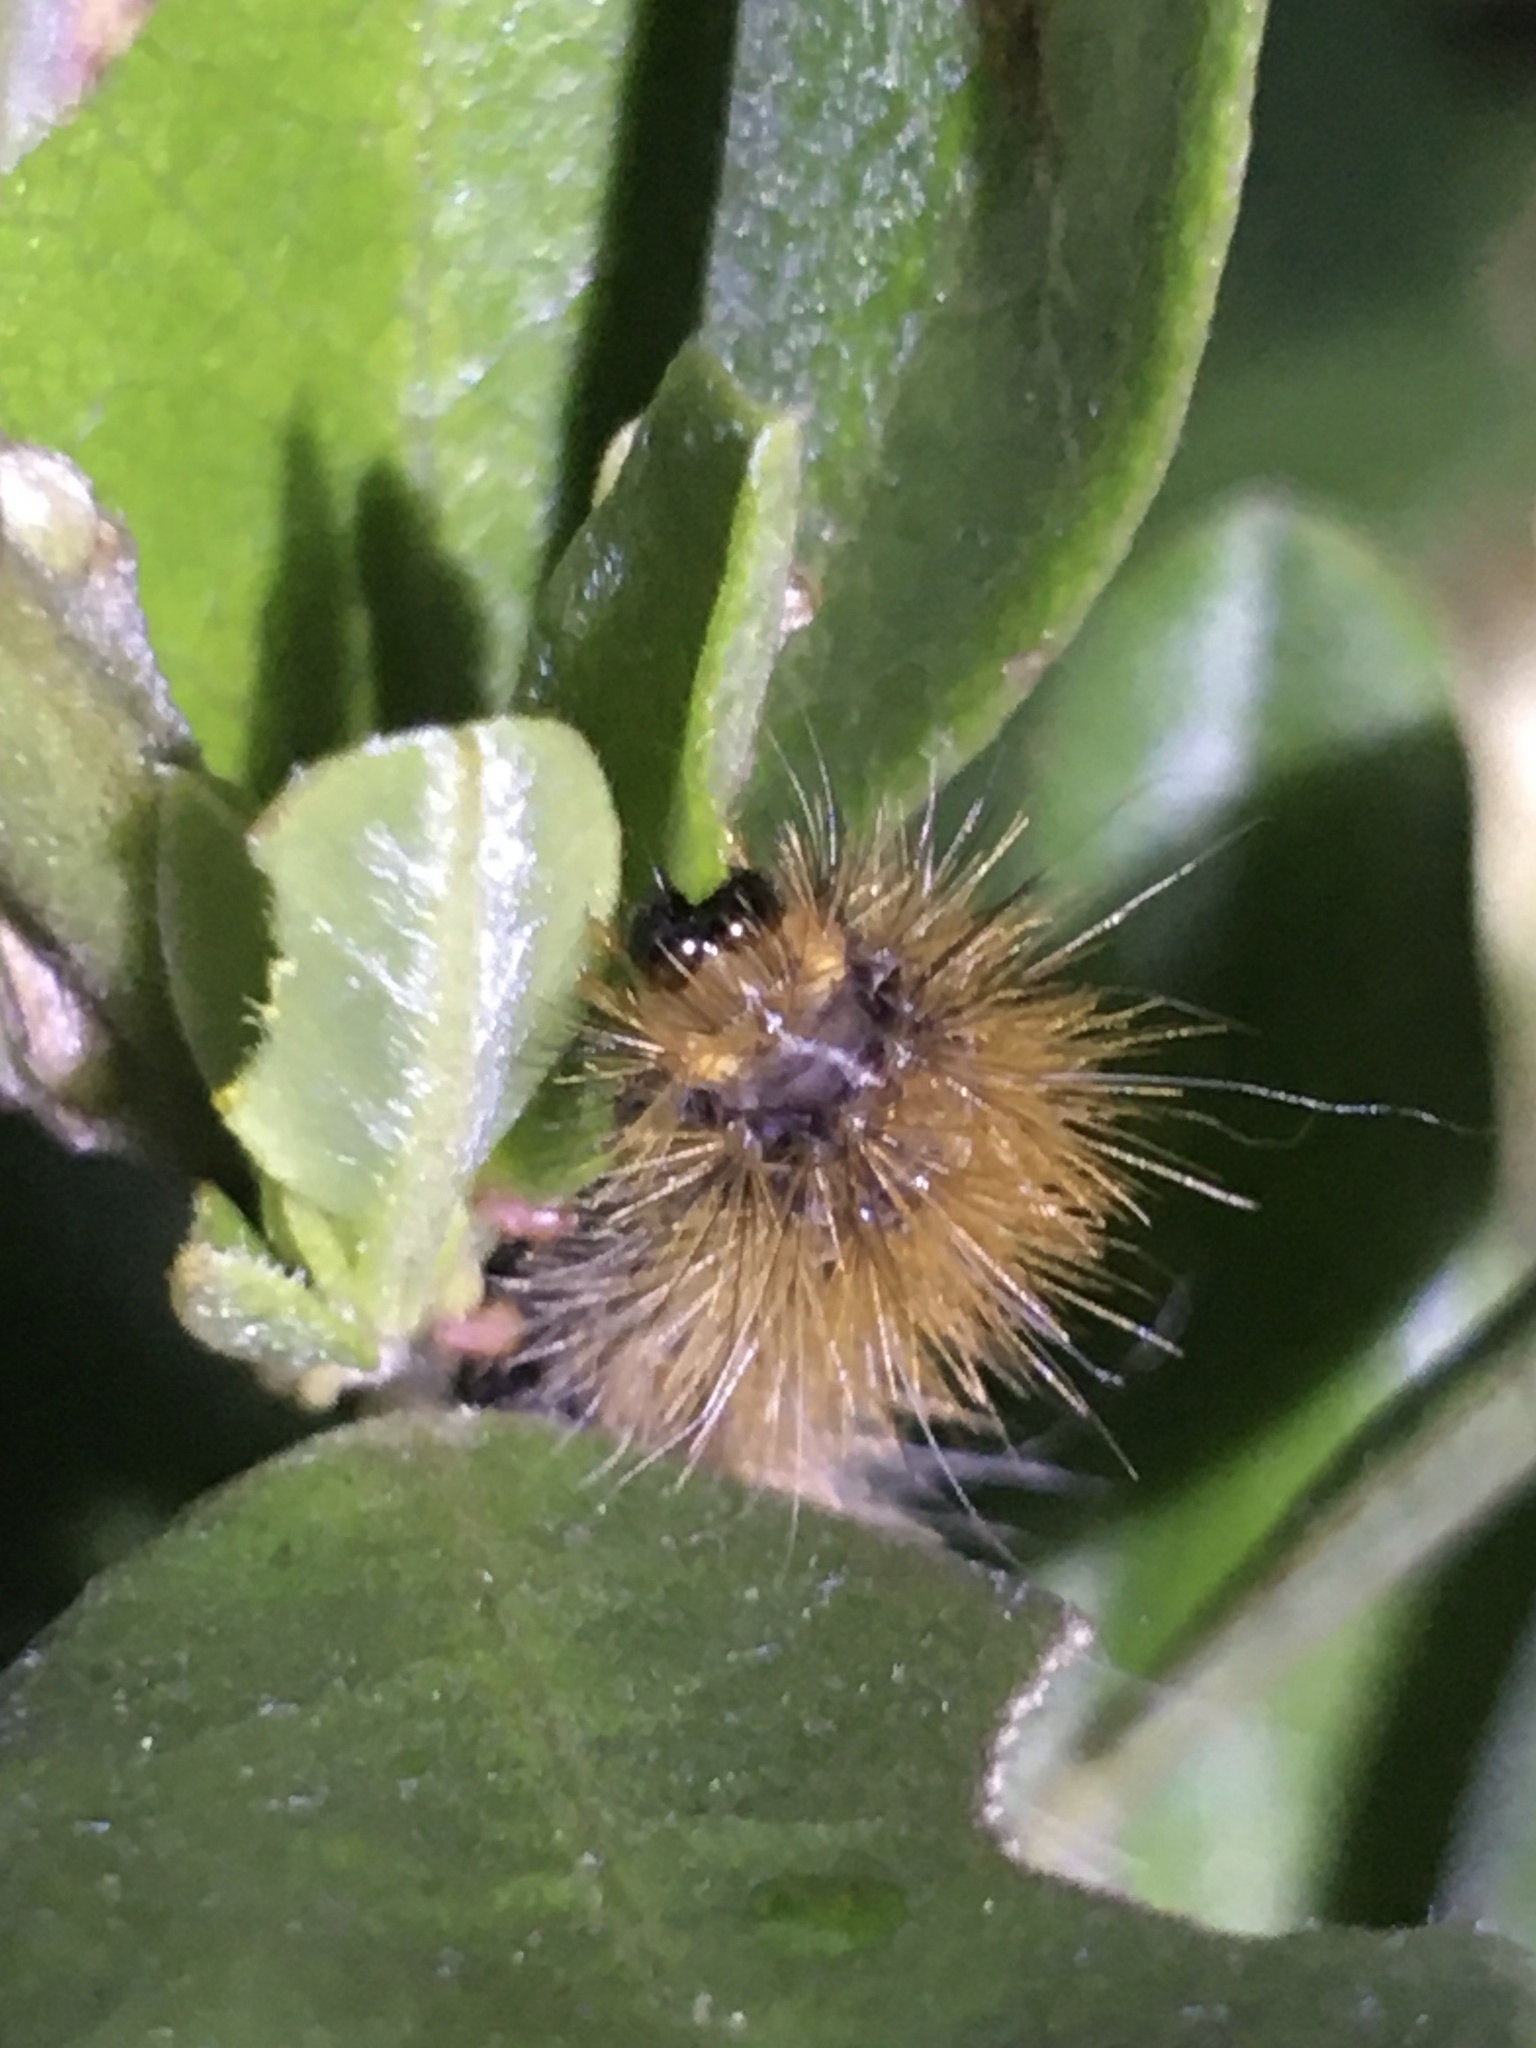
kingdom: Animalia
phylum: Arthropoda
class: Insecta
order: Lepidoptera
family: Erebidae
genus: Rhodogastria
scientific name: Rhodogastria amasis
